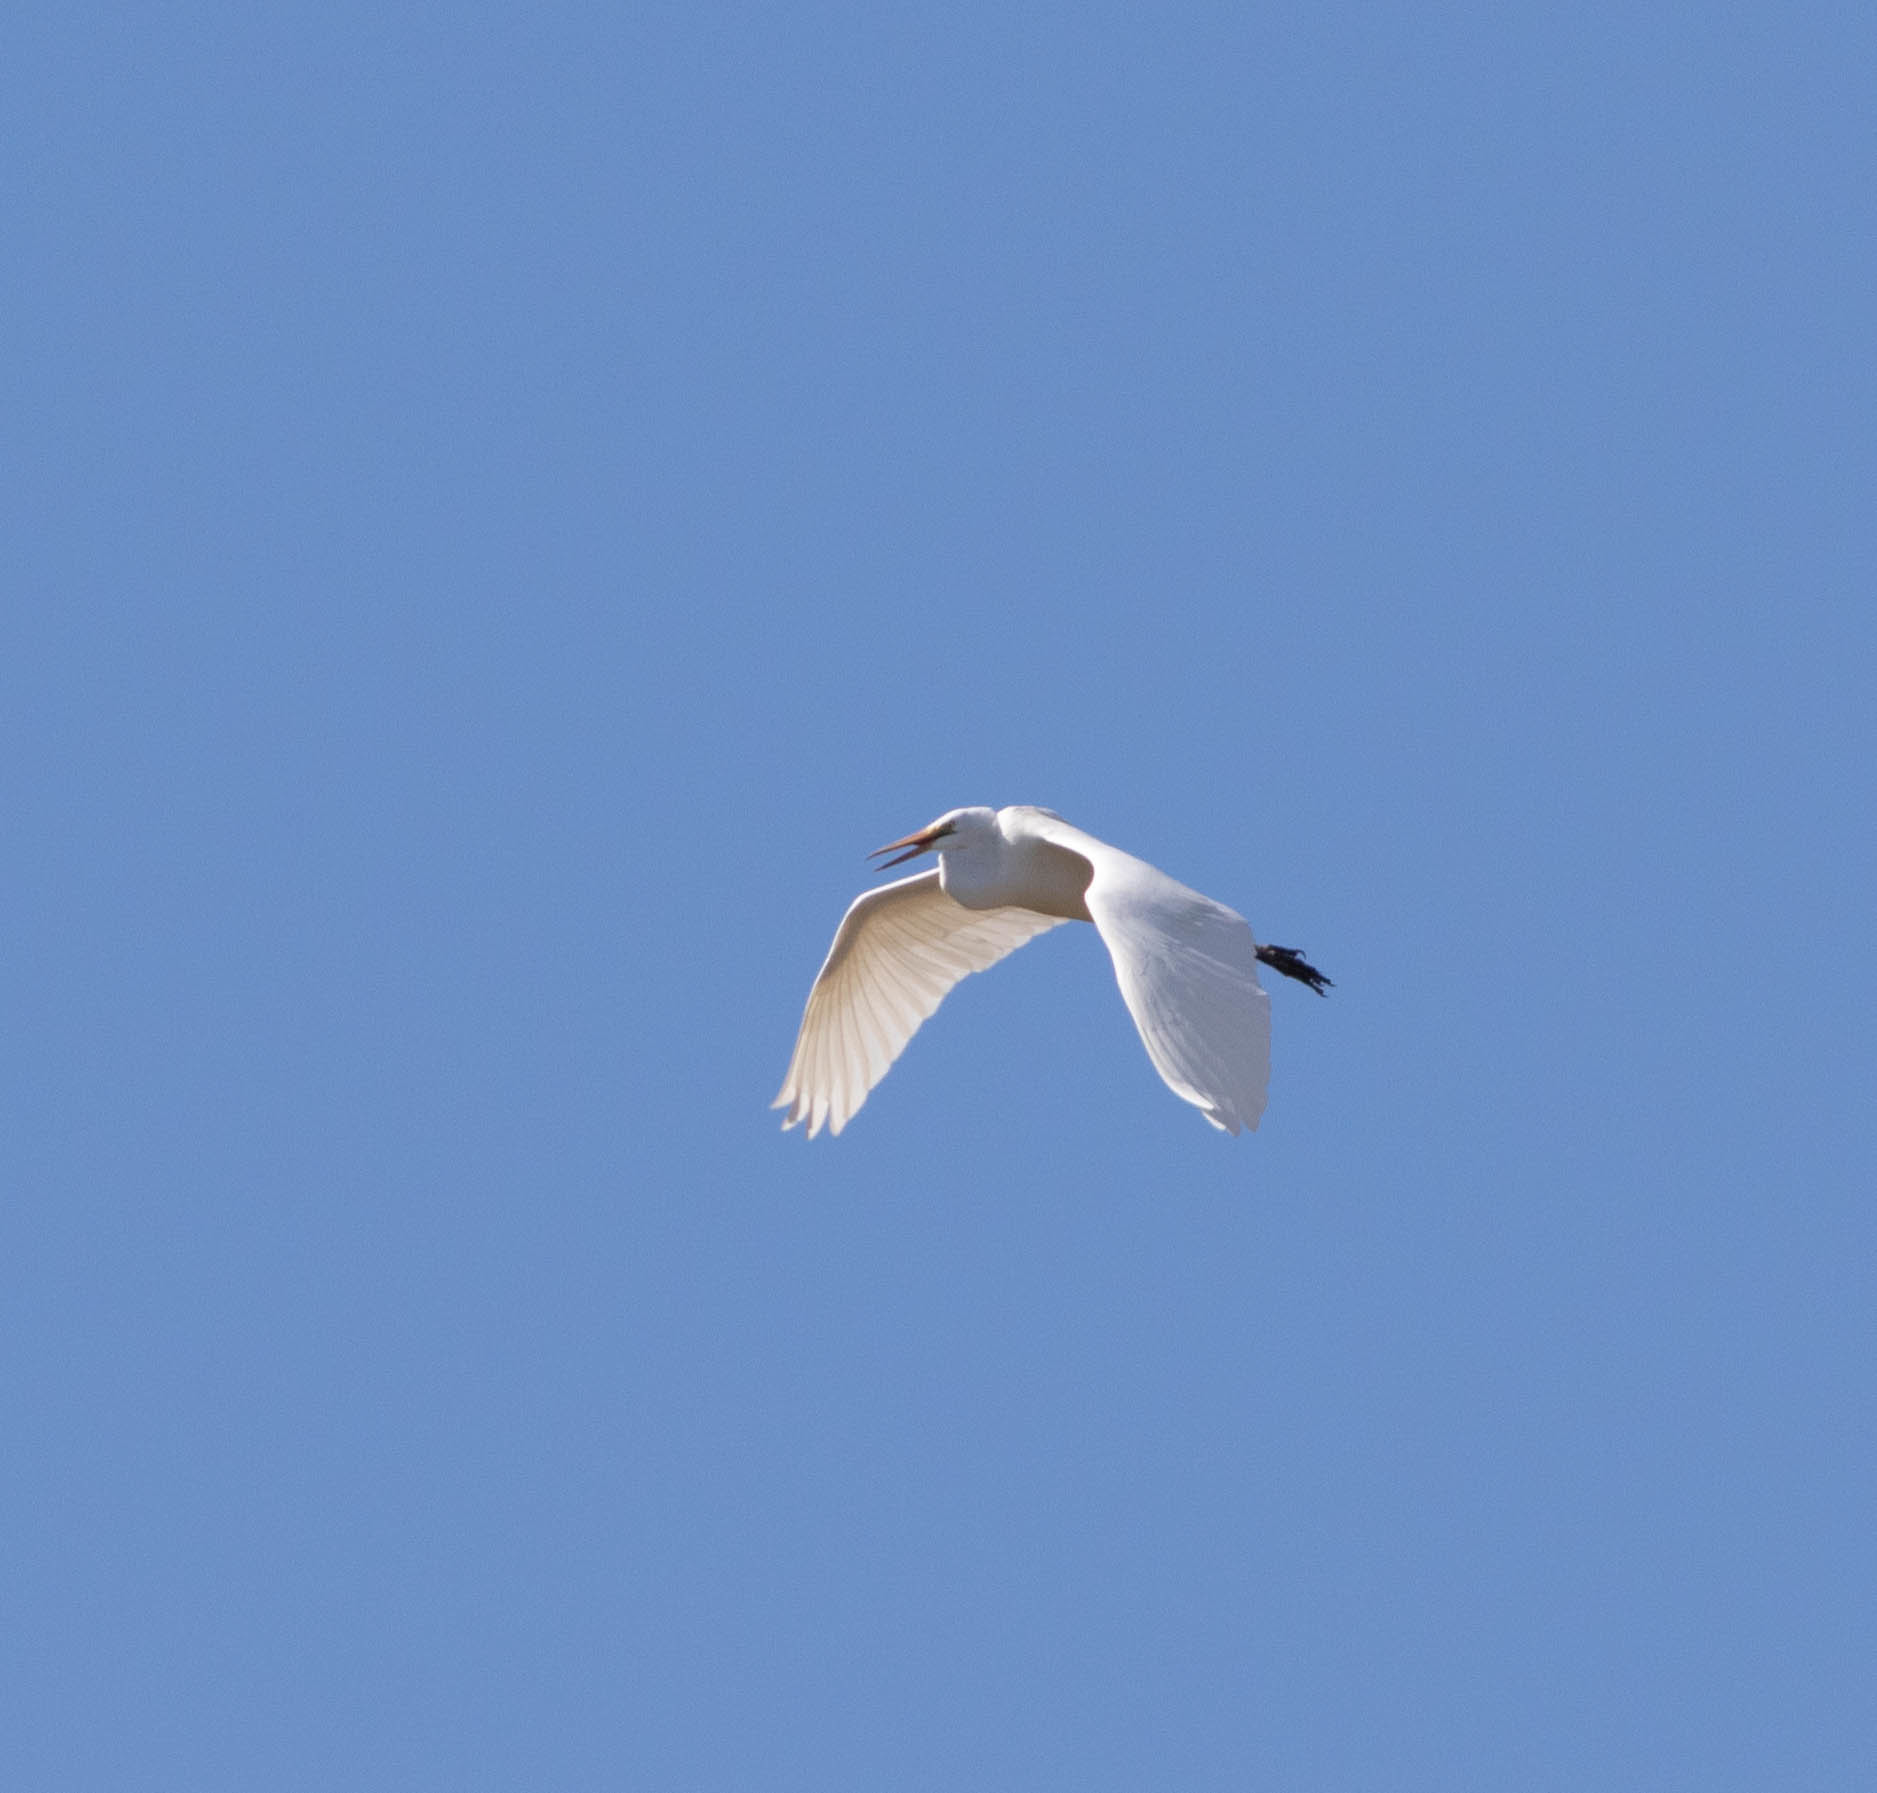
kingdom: Animalia
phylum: Chordata
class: Aves
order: Pelecaniformes
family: Ardeidae
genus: Ardea
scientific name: Ardea alba
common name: Great egret
